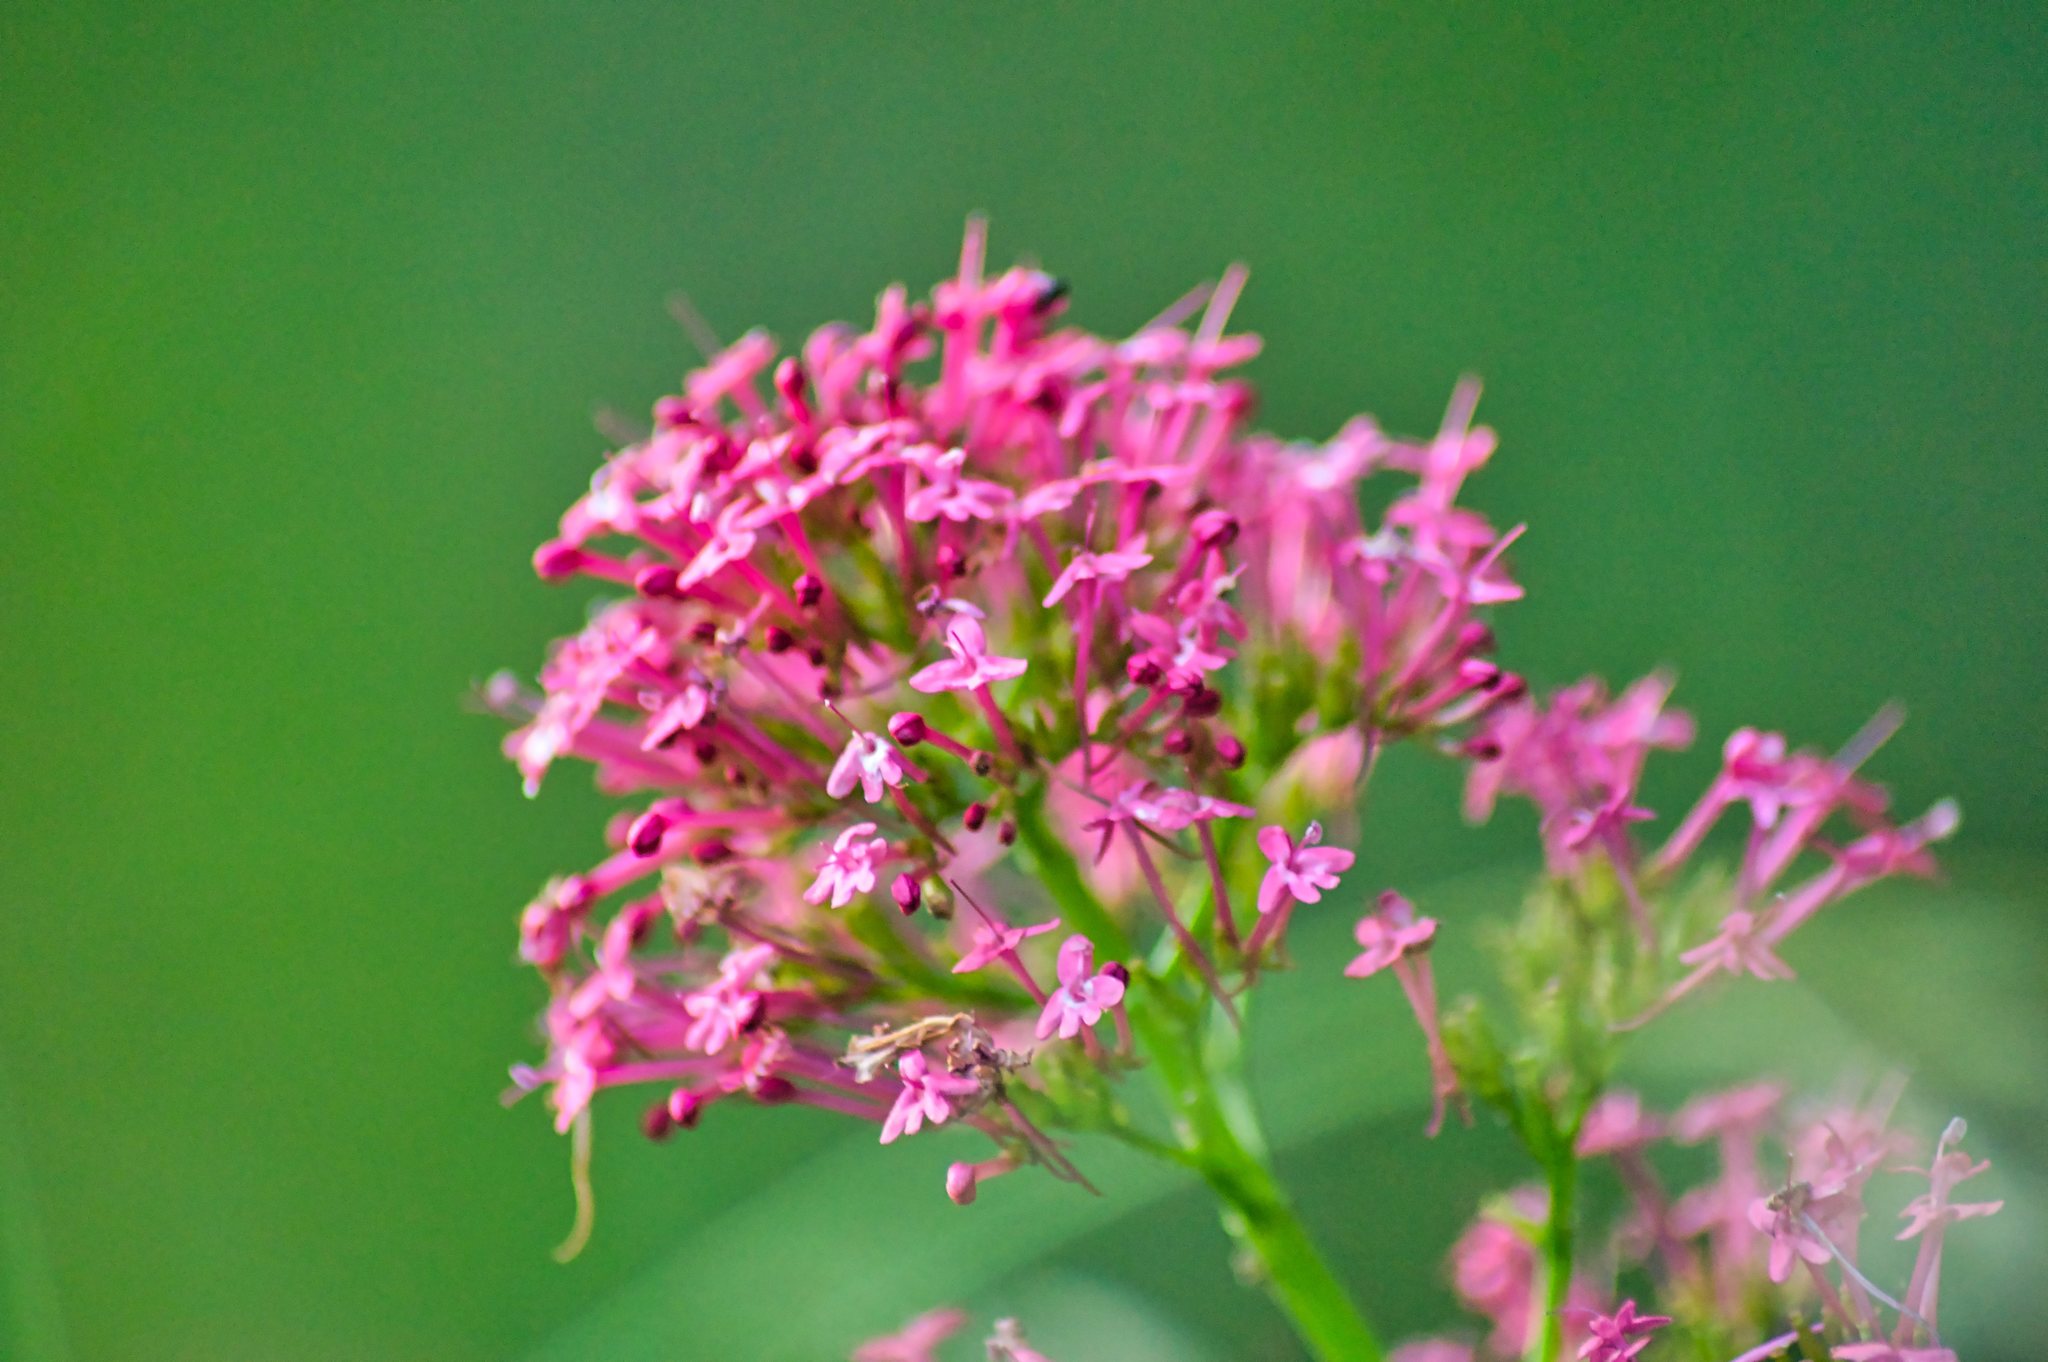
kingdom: Plantae
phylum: Tracheophyta
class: Magnoliopsida
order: Dipsacales
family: Caprifoliaceae
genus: Centranthus
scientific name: Centranthus ruber
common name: Red valerian
